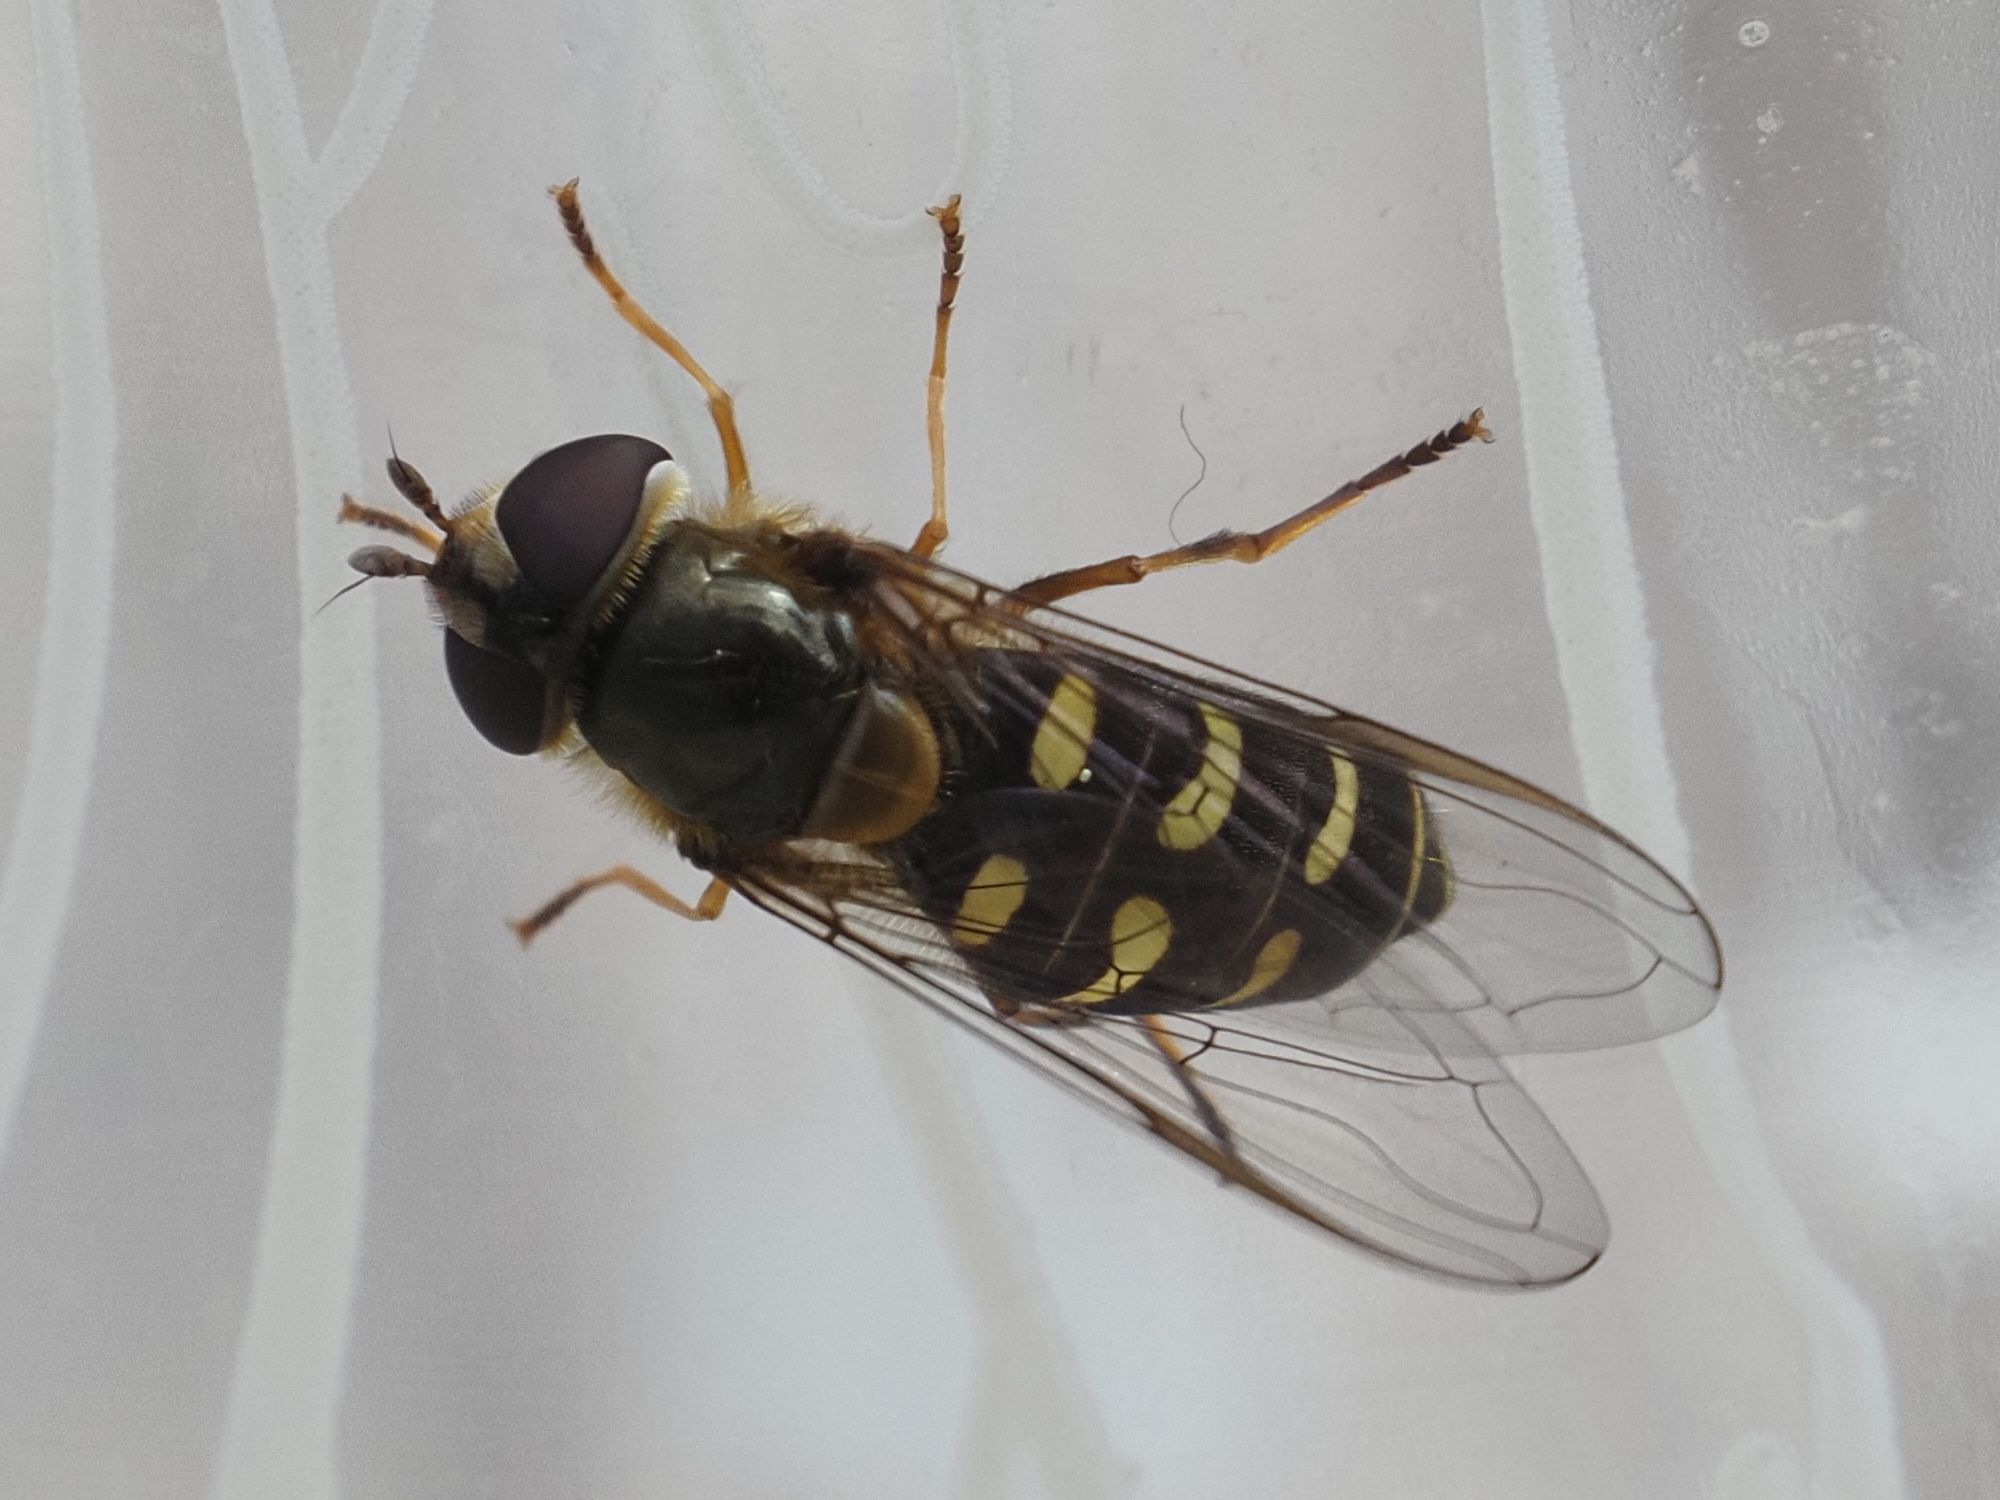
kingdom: Animalia
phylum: Arthropoda
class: Insecta
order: Diptera
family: Syrphidae
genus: Lapposyrphus
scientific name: Lapposyrphus lapponicus
